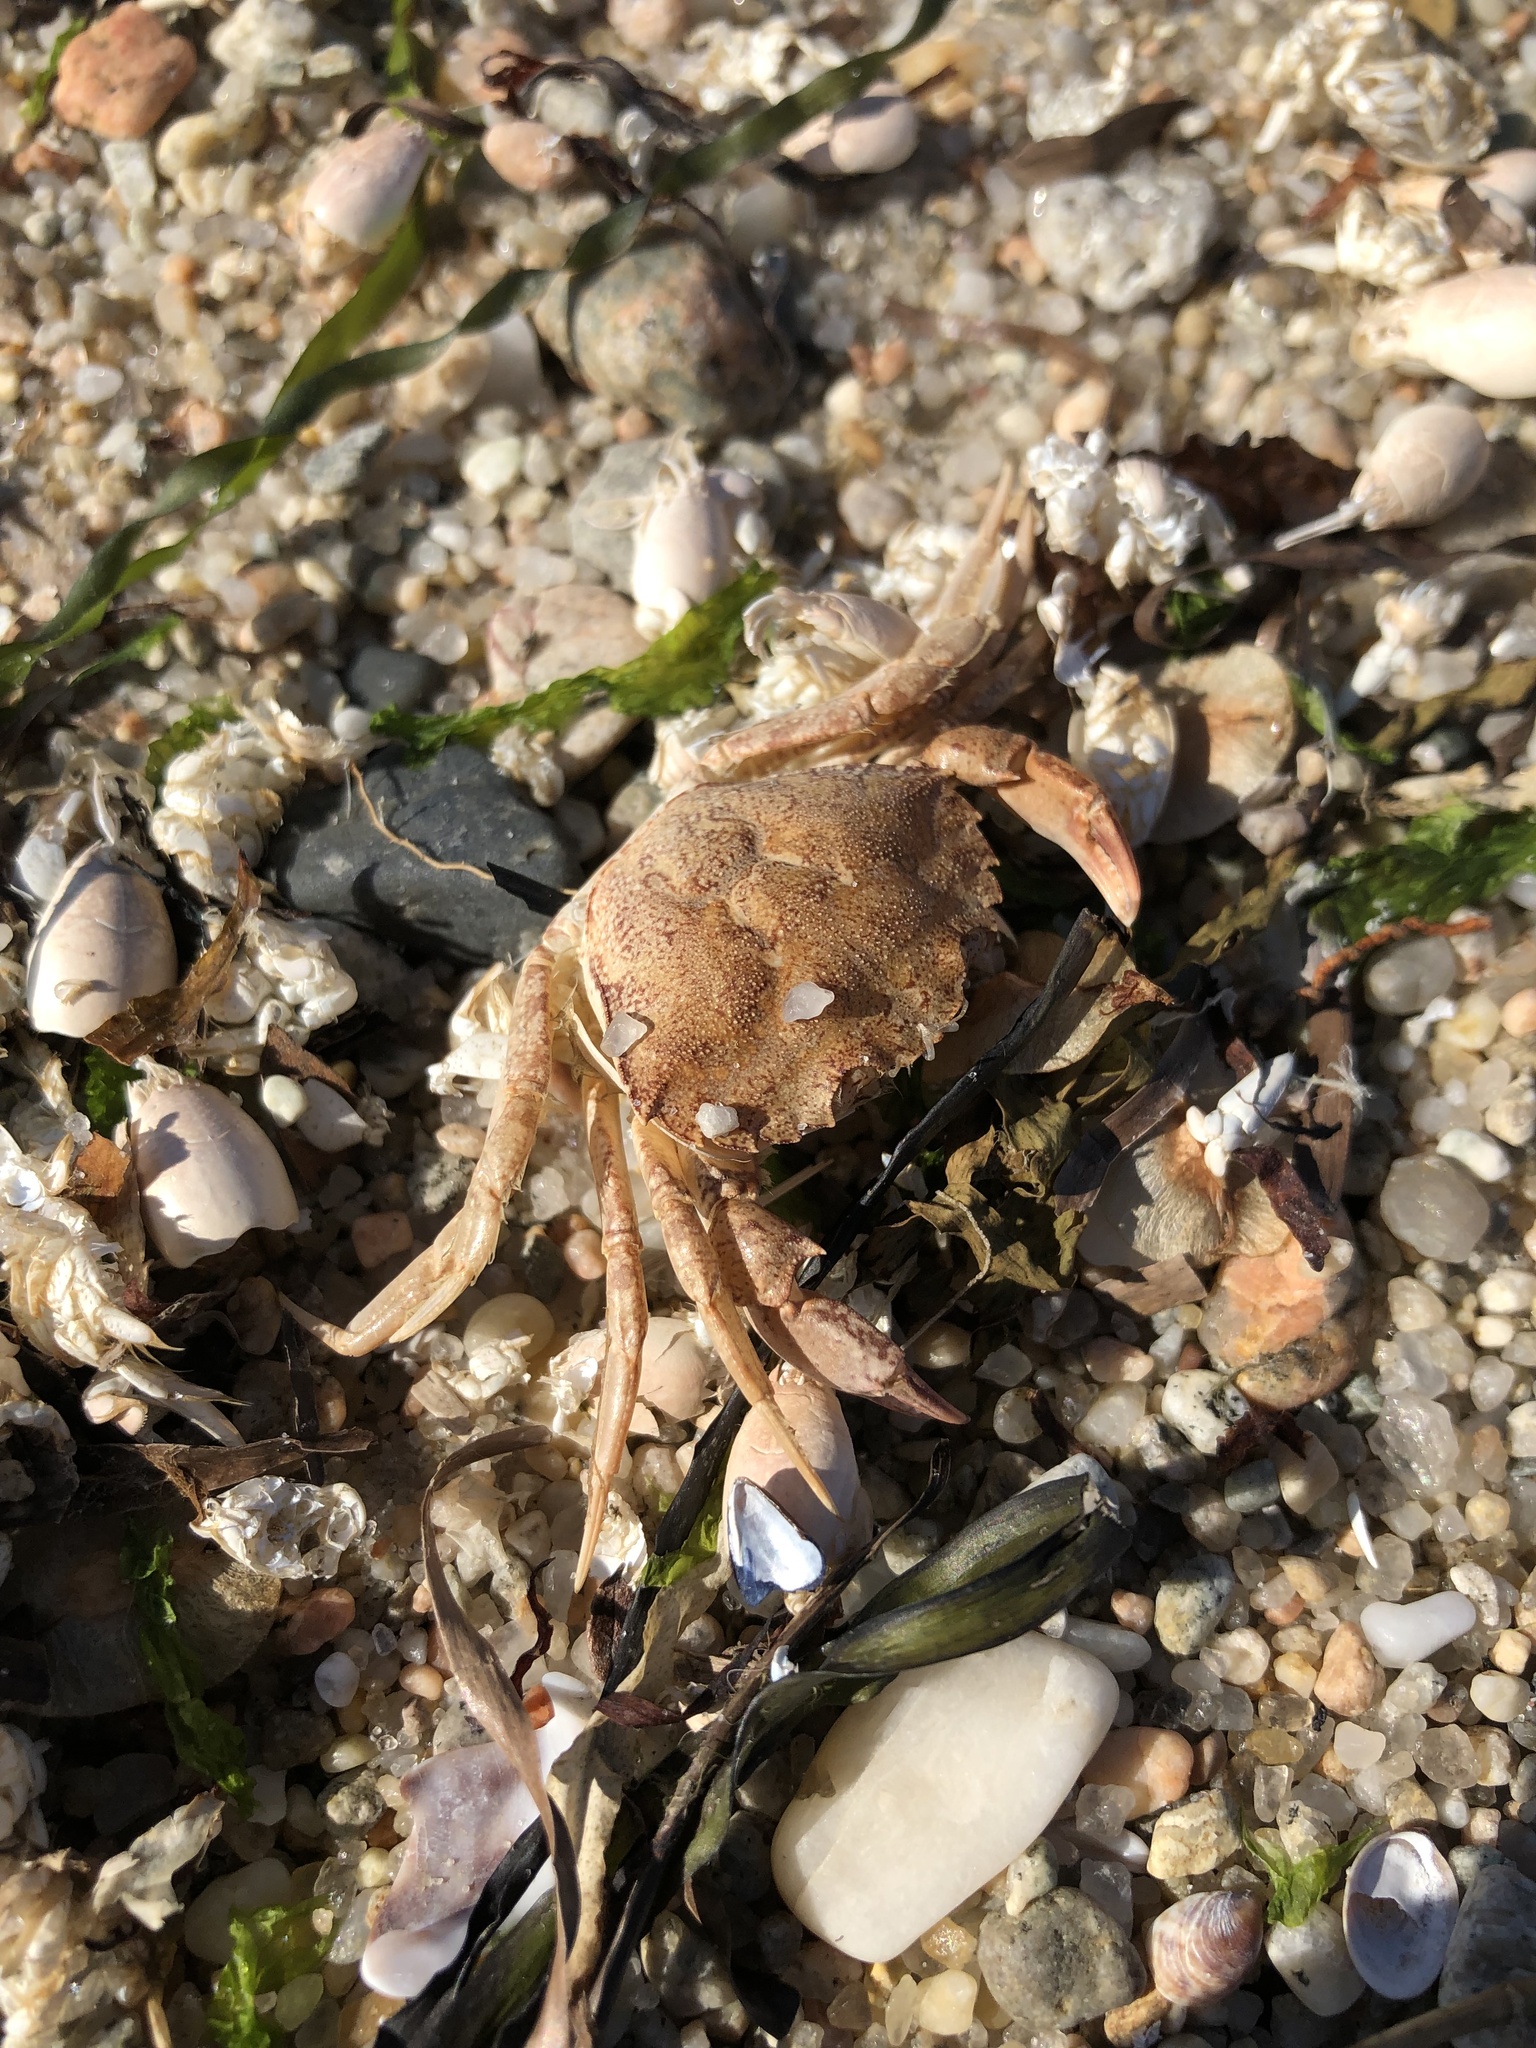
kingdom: Animalia
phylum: Arthropoda
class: Malacostraca
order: Decapoda
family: Carcinidae
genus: Carcinus
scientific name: Carcinus maenas
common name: European green crab
